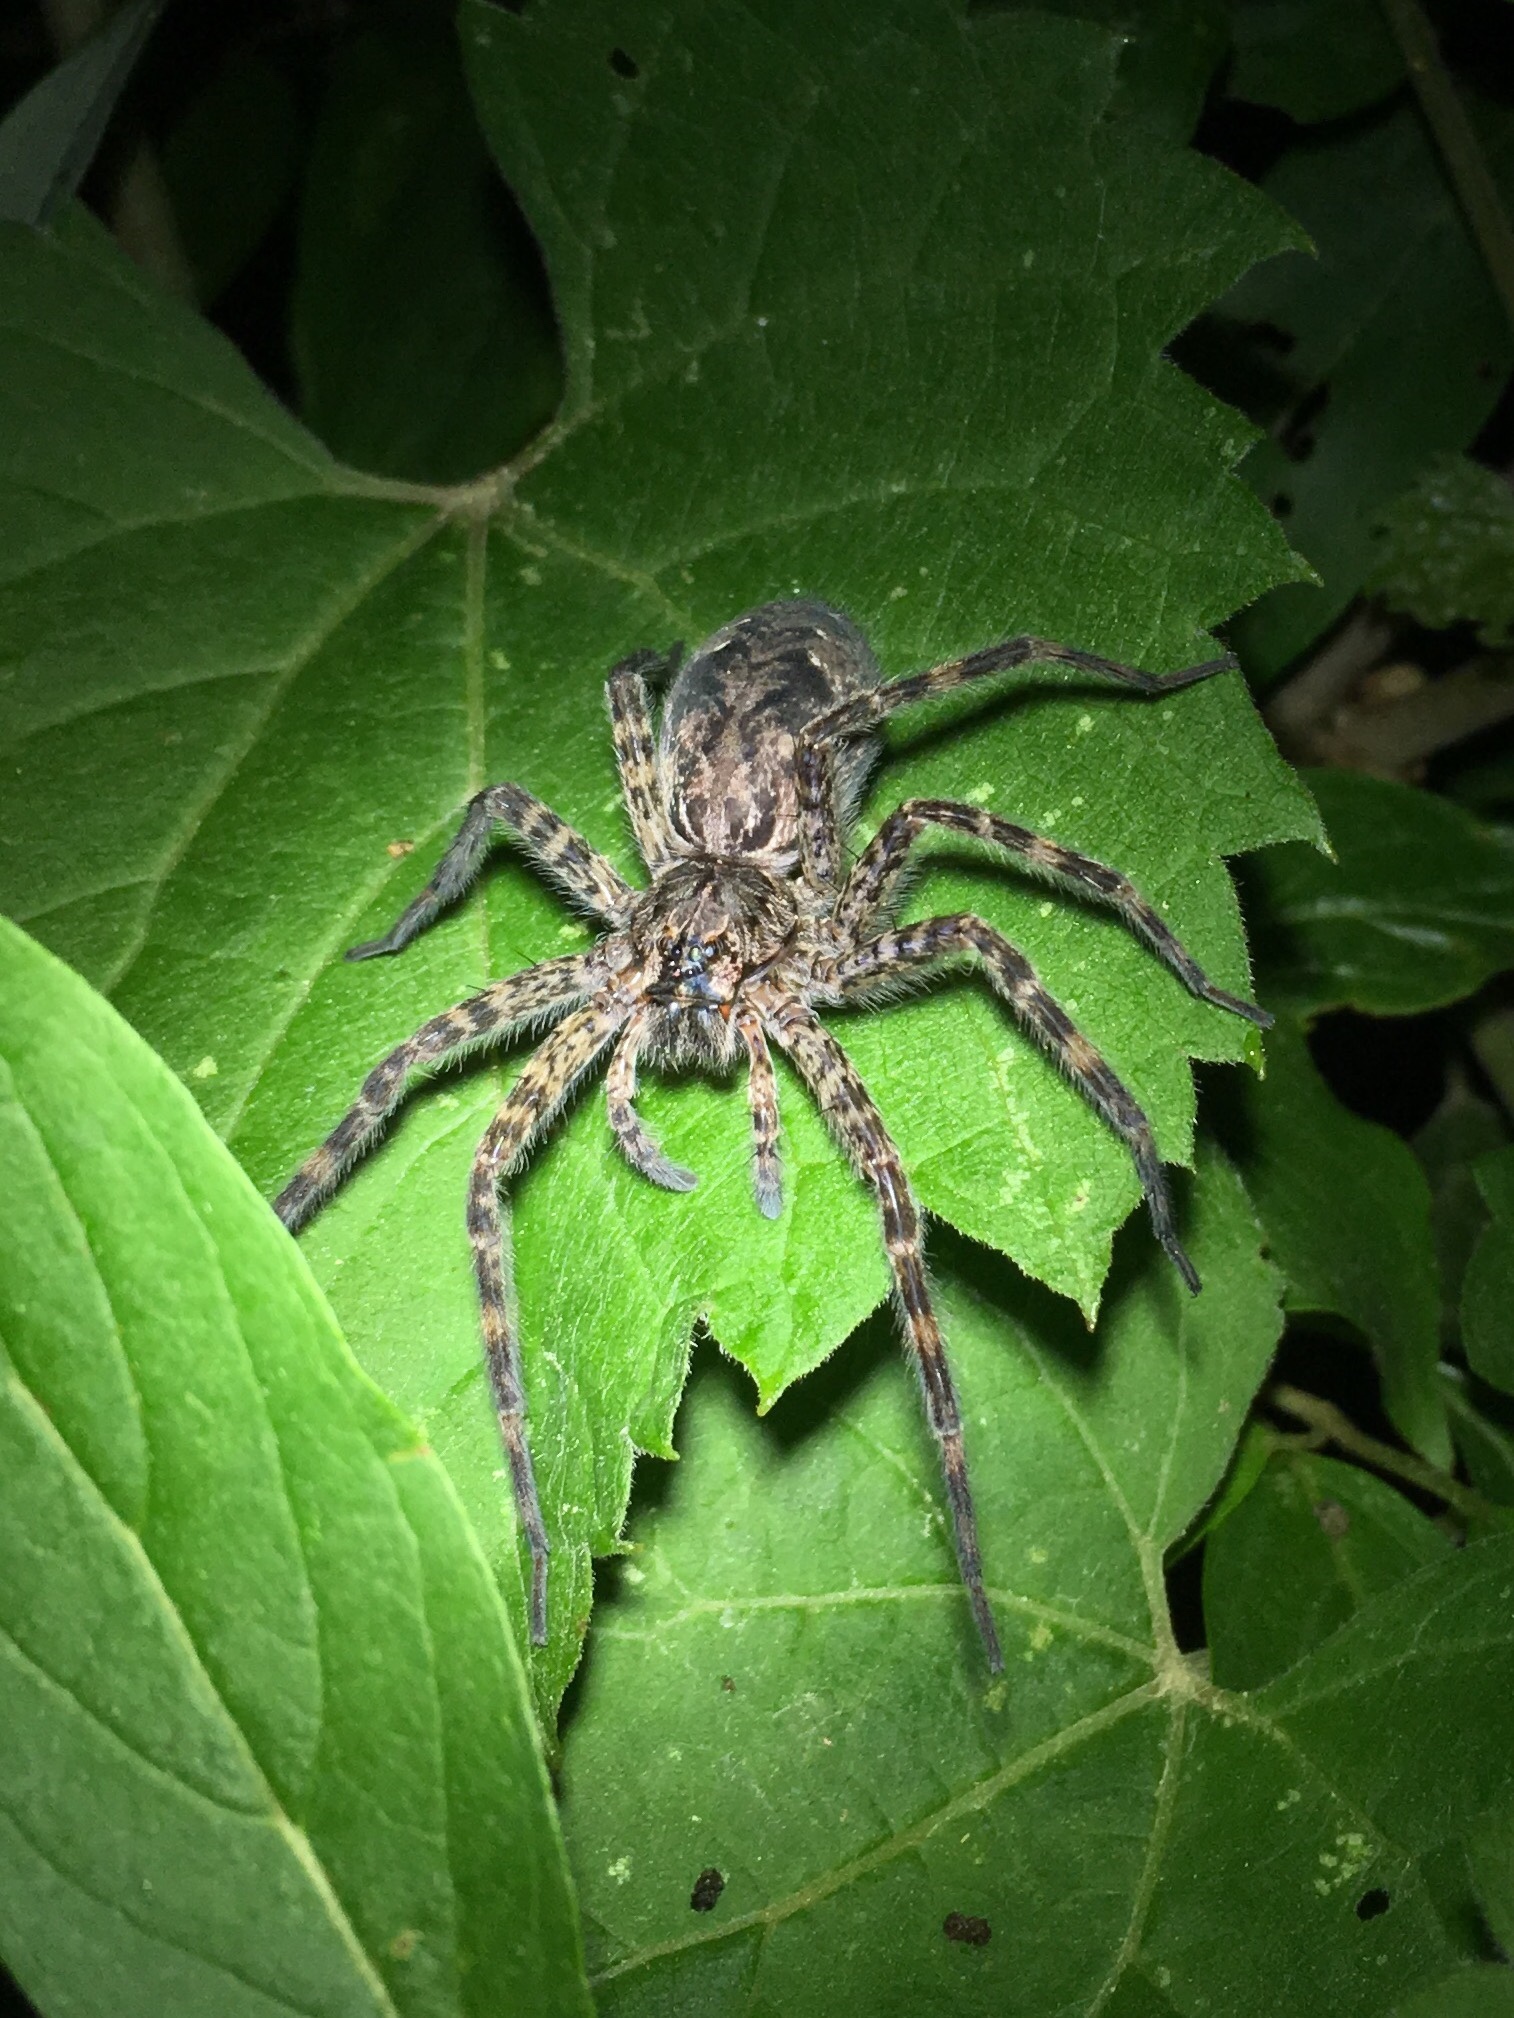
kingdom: Animalia
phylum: Arthropoda
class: Arachnida
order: Araneae
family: Pisauridae
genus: Dolomedes
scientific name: Dolomedes tenebrosus
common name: Dark fishing spider
